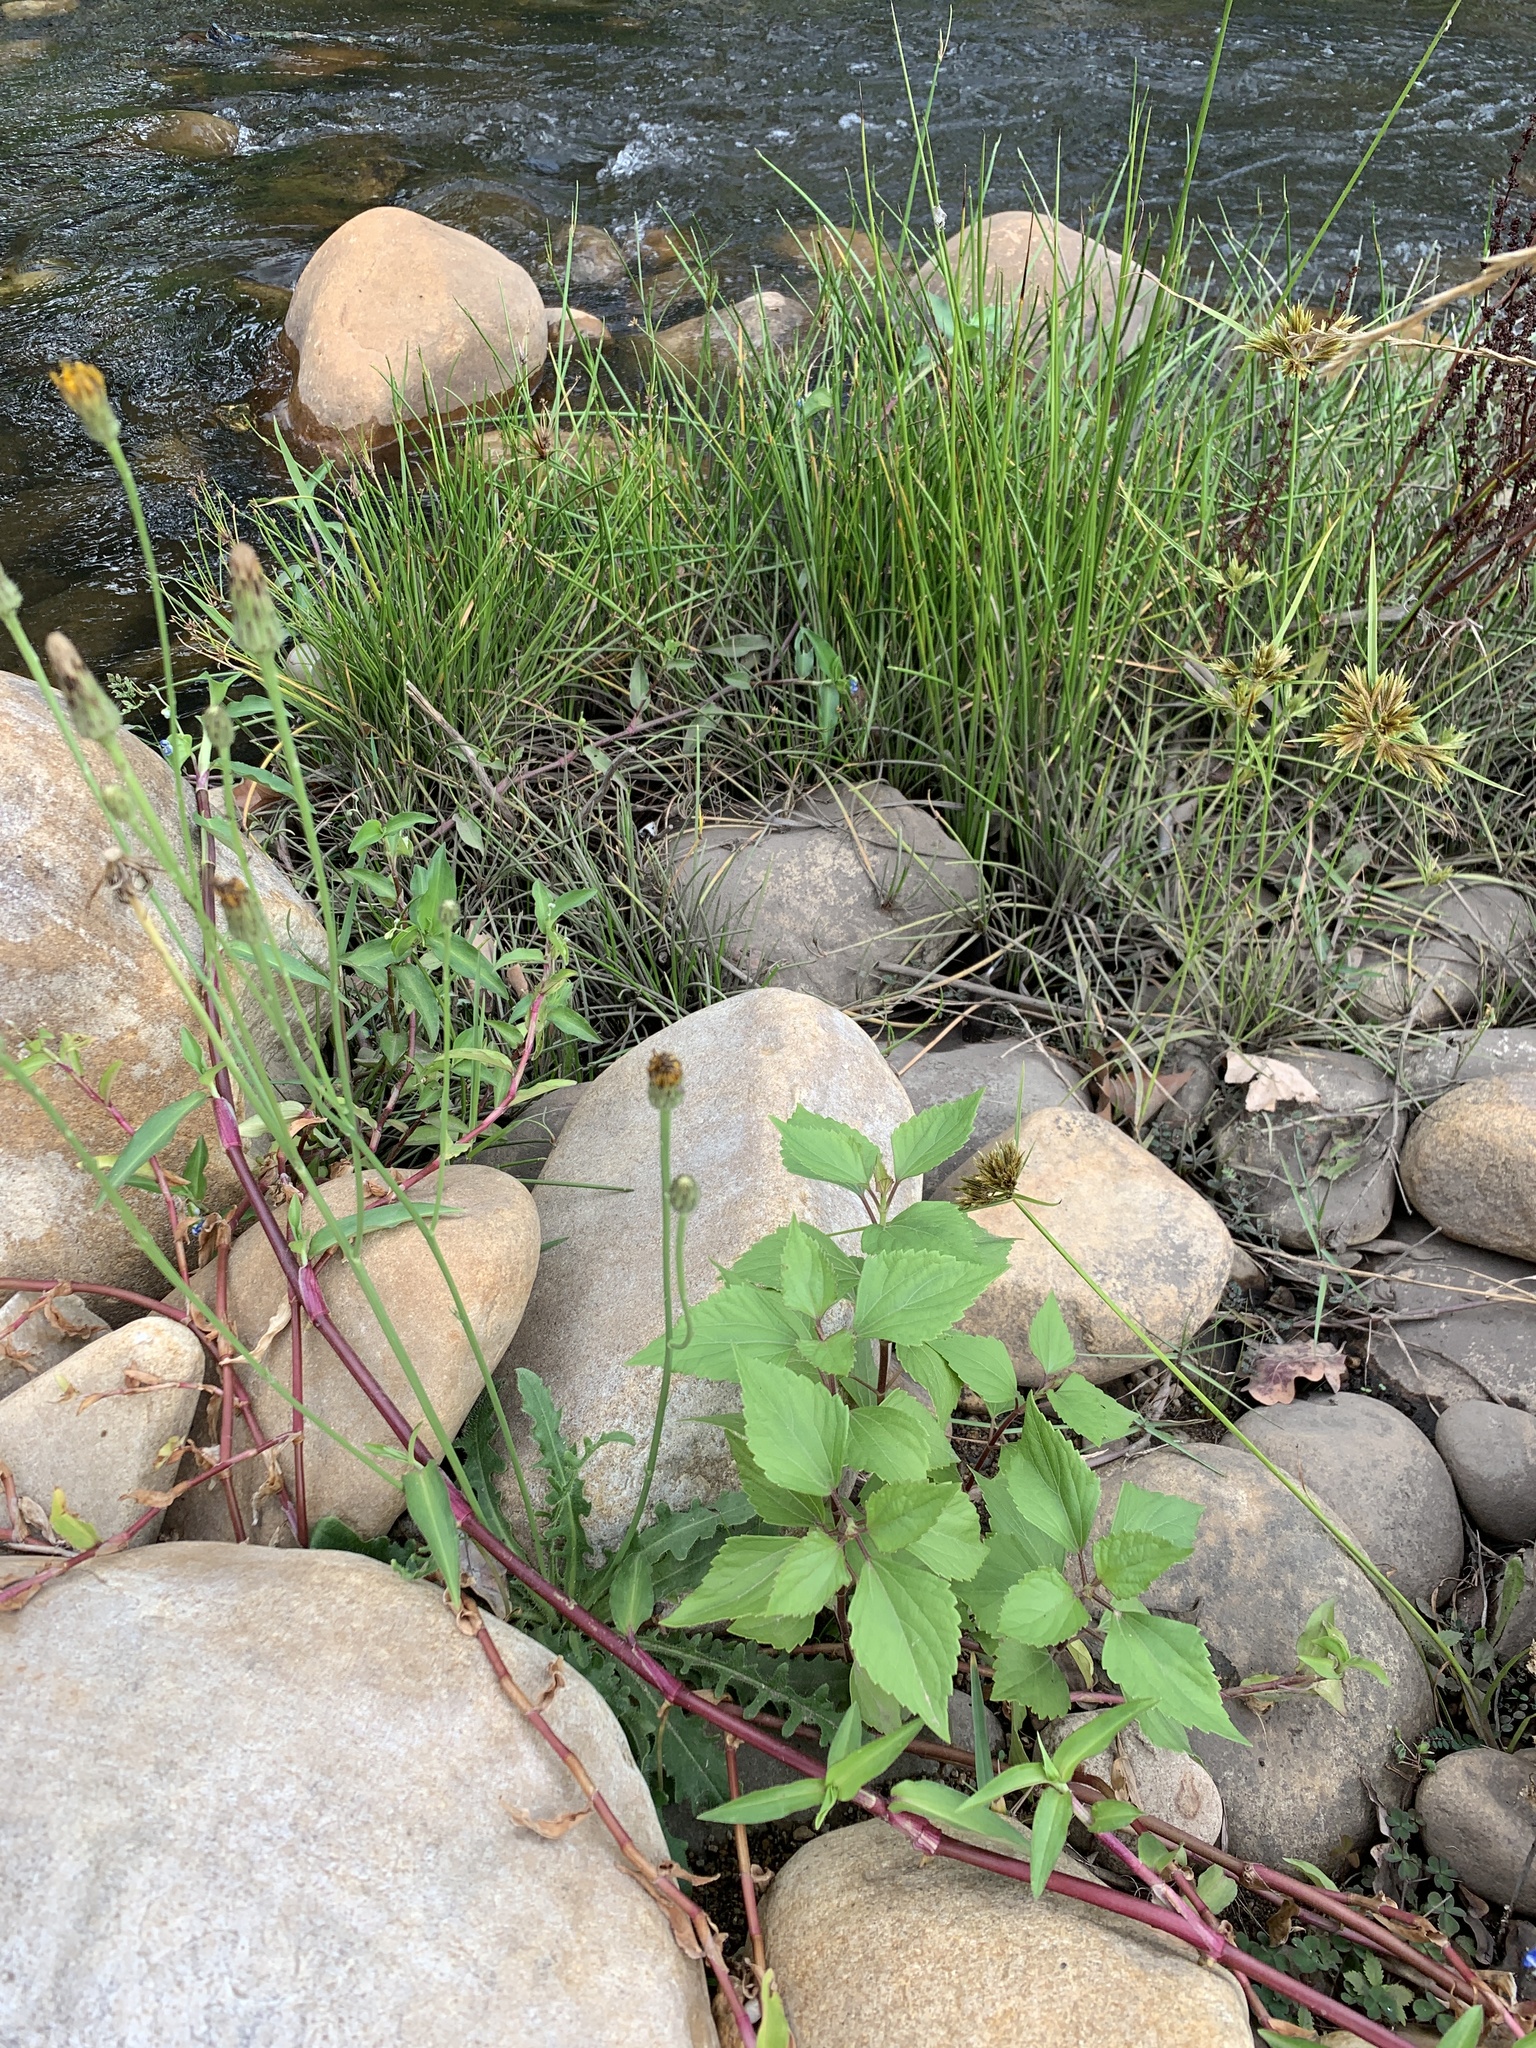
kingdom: Plantae
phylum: Tracheophyta
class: Magnoliopsida
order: Asterales
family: Asteraceae
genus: Ageratina
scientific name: Ageratina adenophora
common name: Sticky snakeroot
